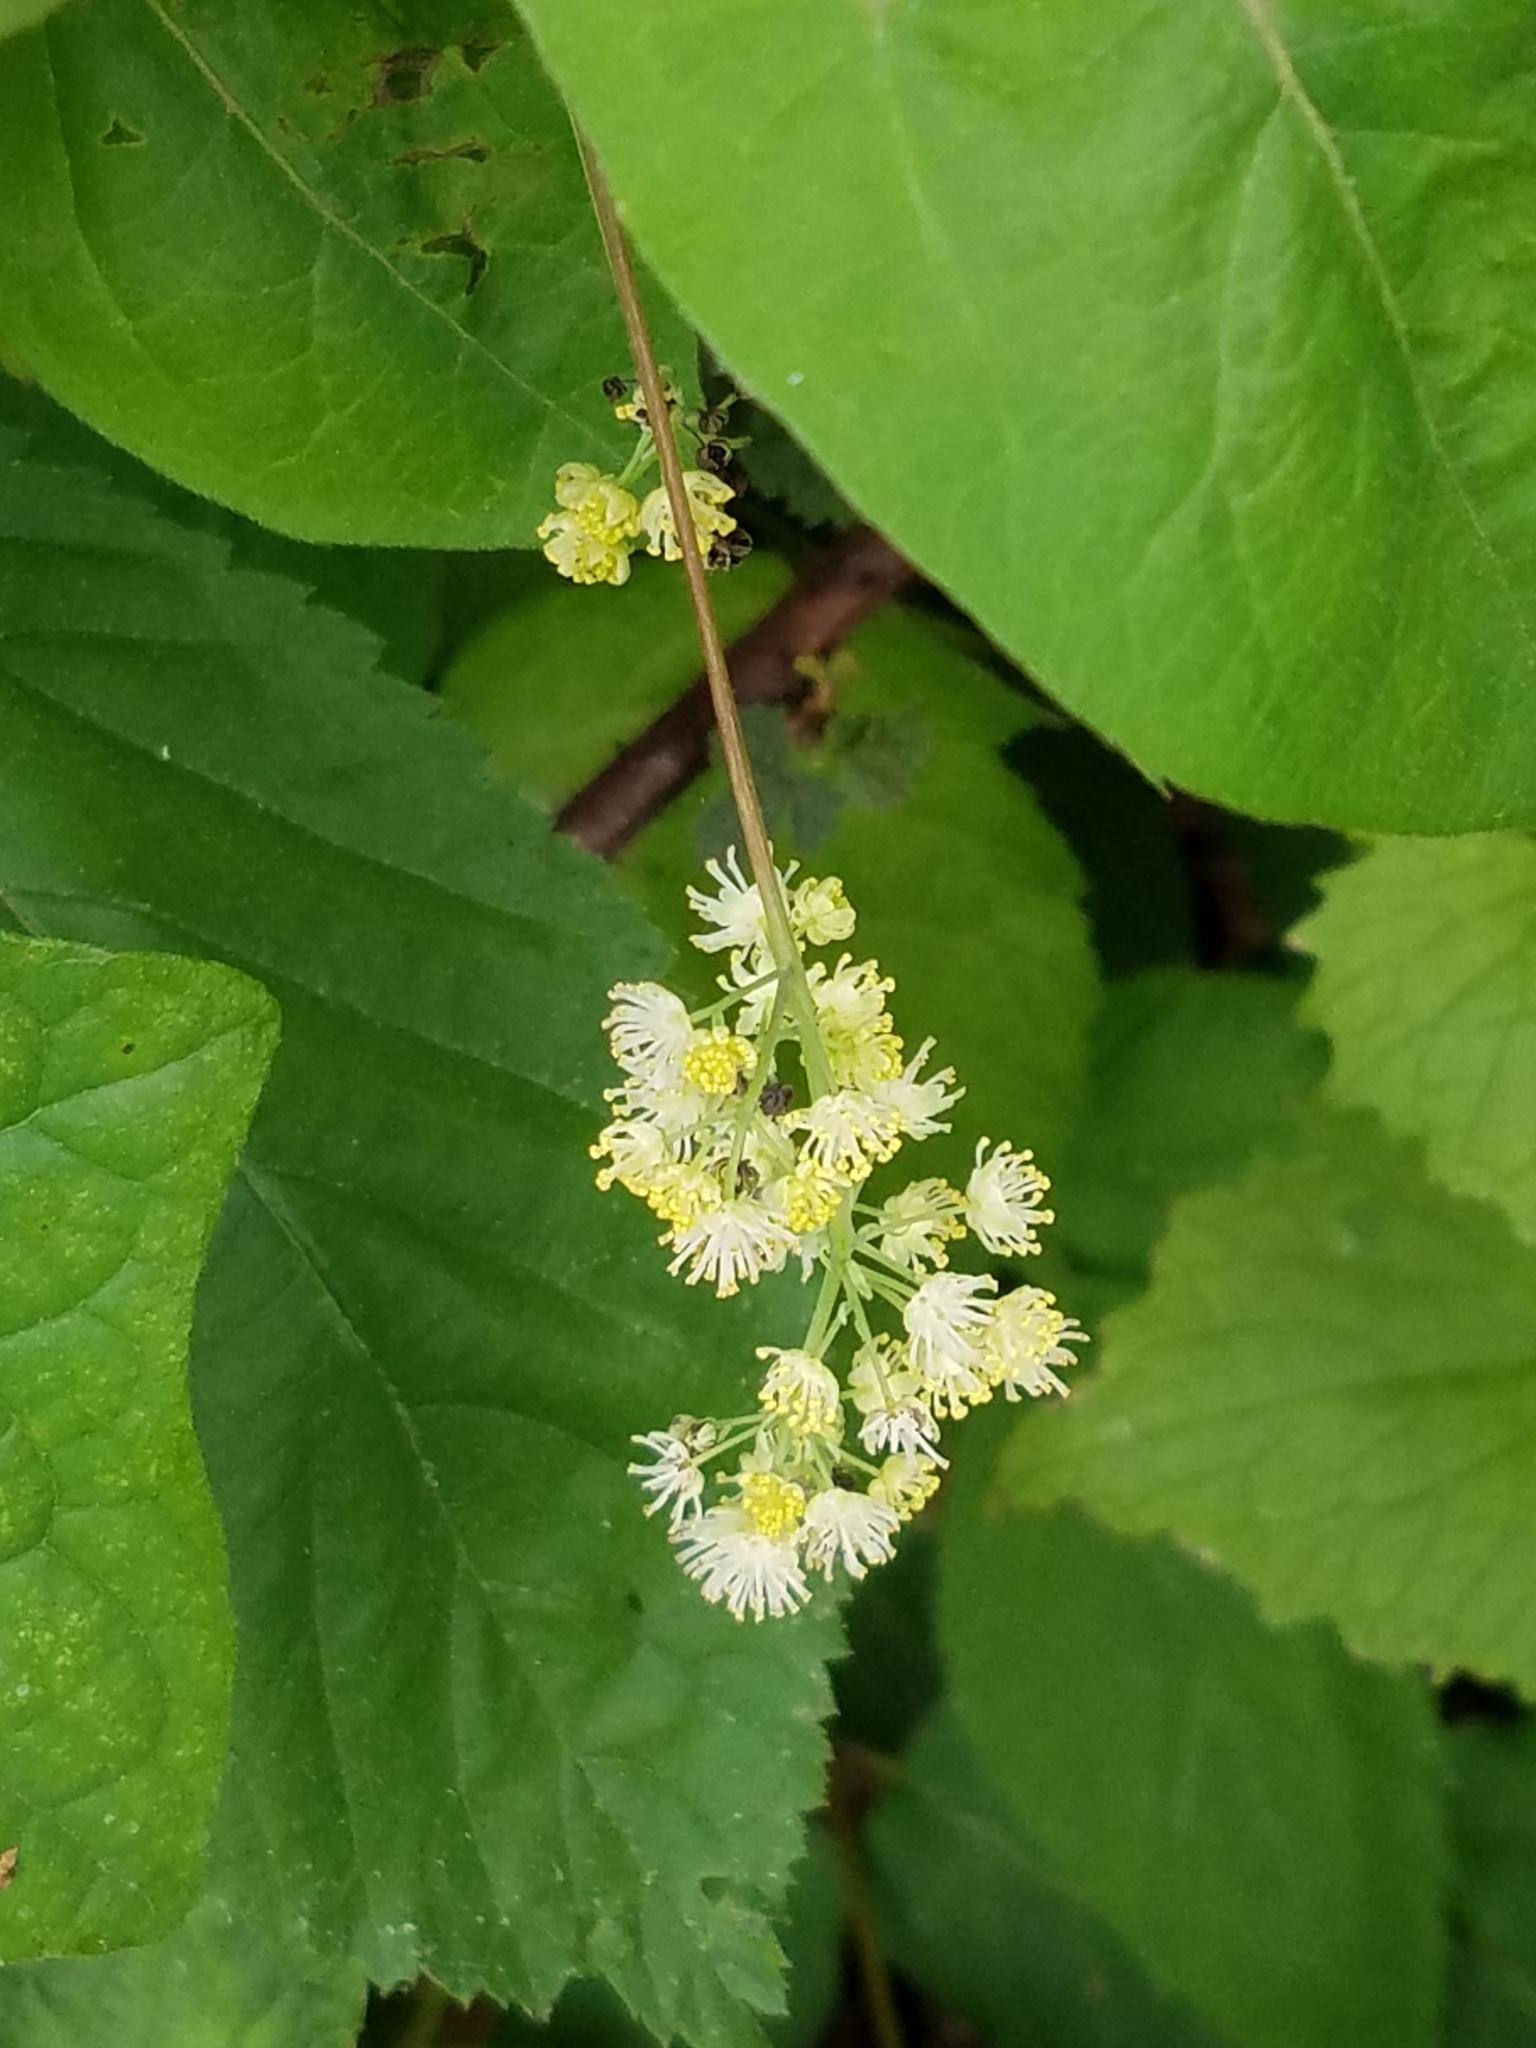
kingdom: Plantae
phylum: Tracheophyta
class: Magnoliopsida
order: Ranunculales
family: Menispermaceae
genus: Menispermum
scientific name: Menispermum canadense
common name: Moonseed
